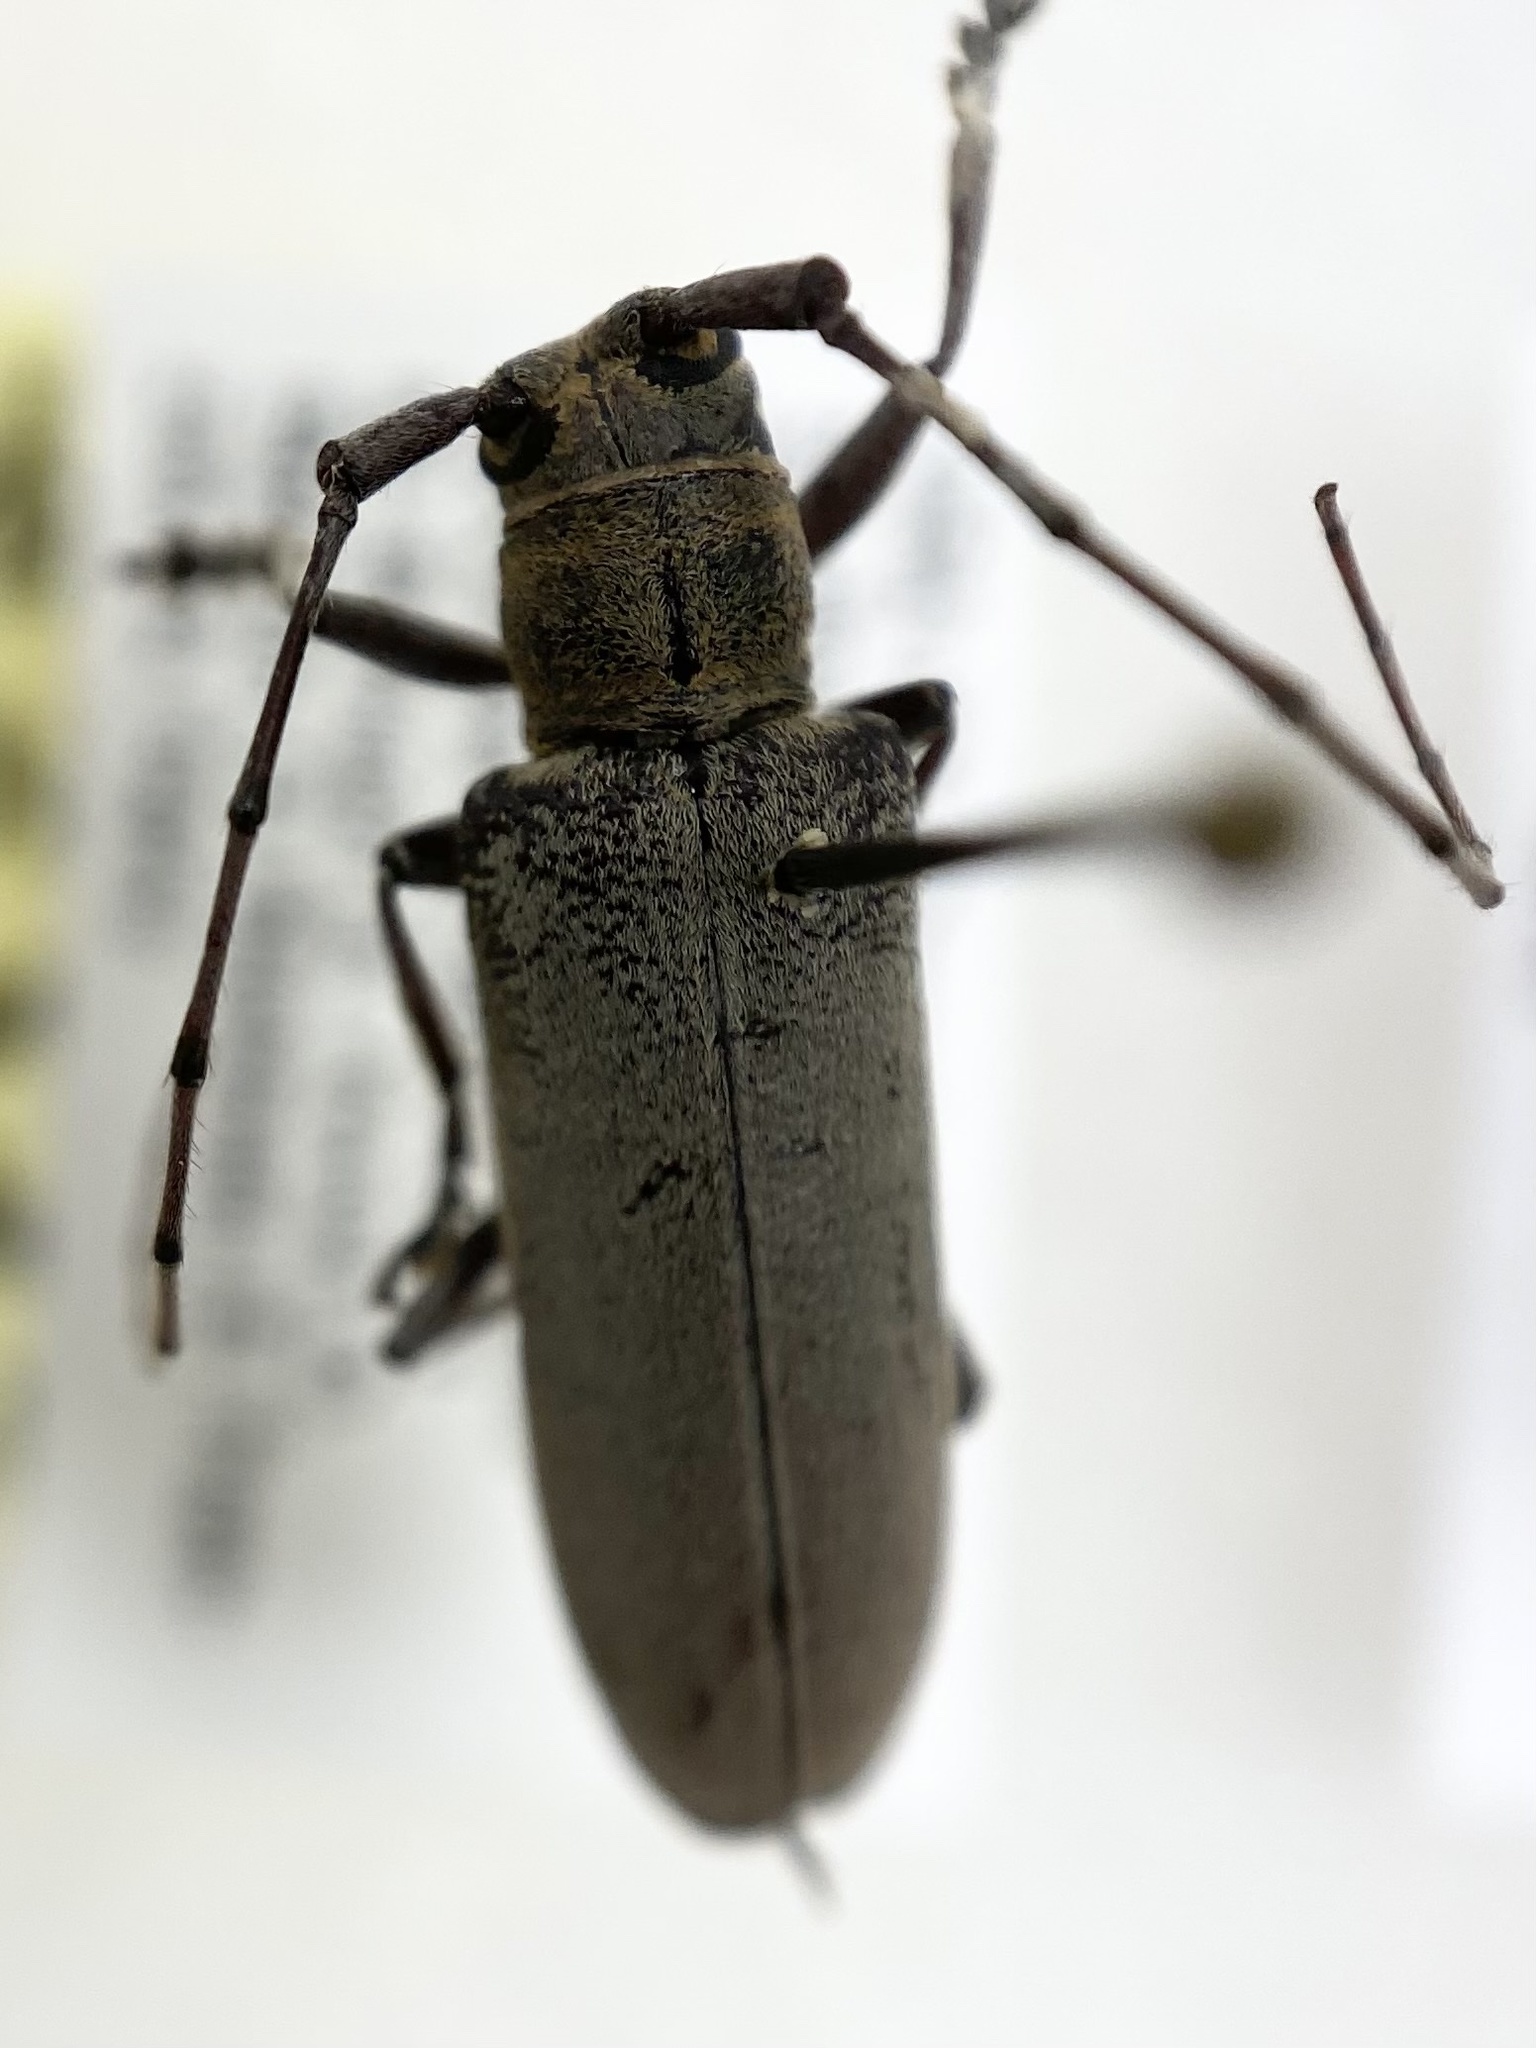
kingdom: Animalia
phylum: Arthropoda
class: Insecta
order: Coleoptera
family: Cerambycidae
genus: Hebestola
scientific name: Hebestola nebulosa
